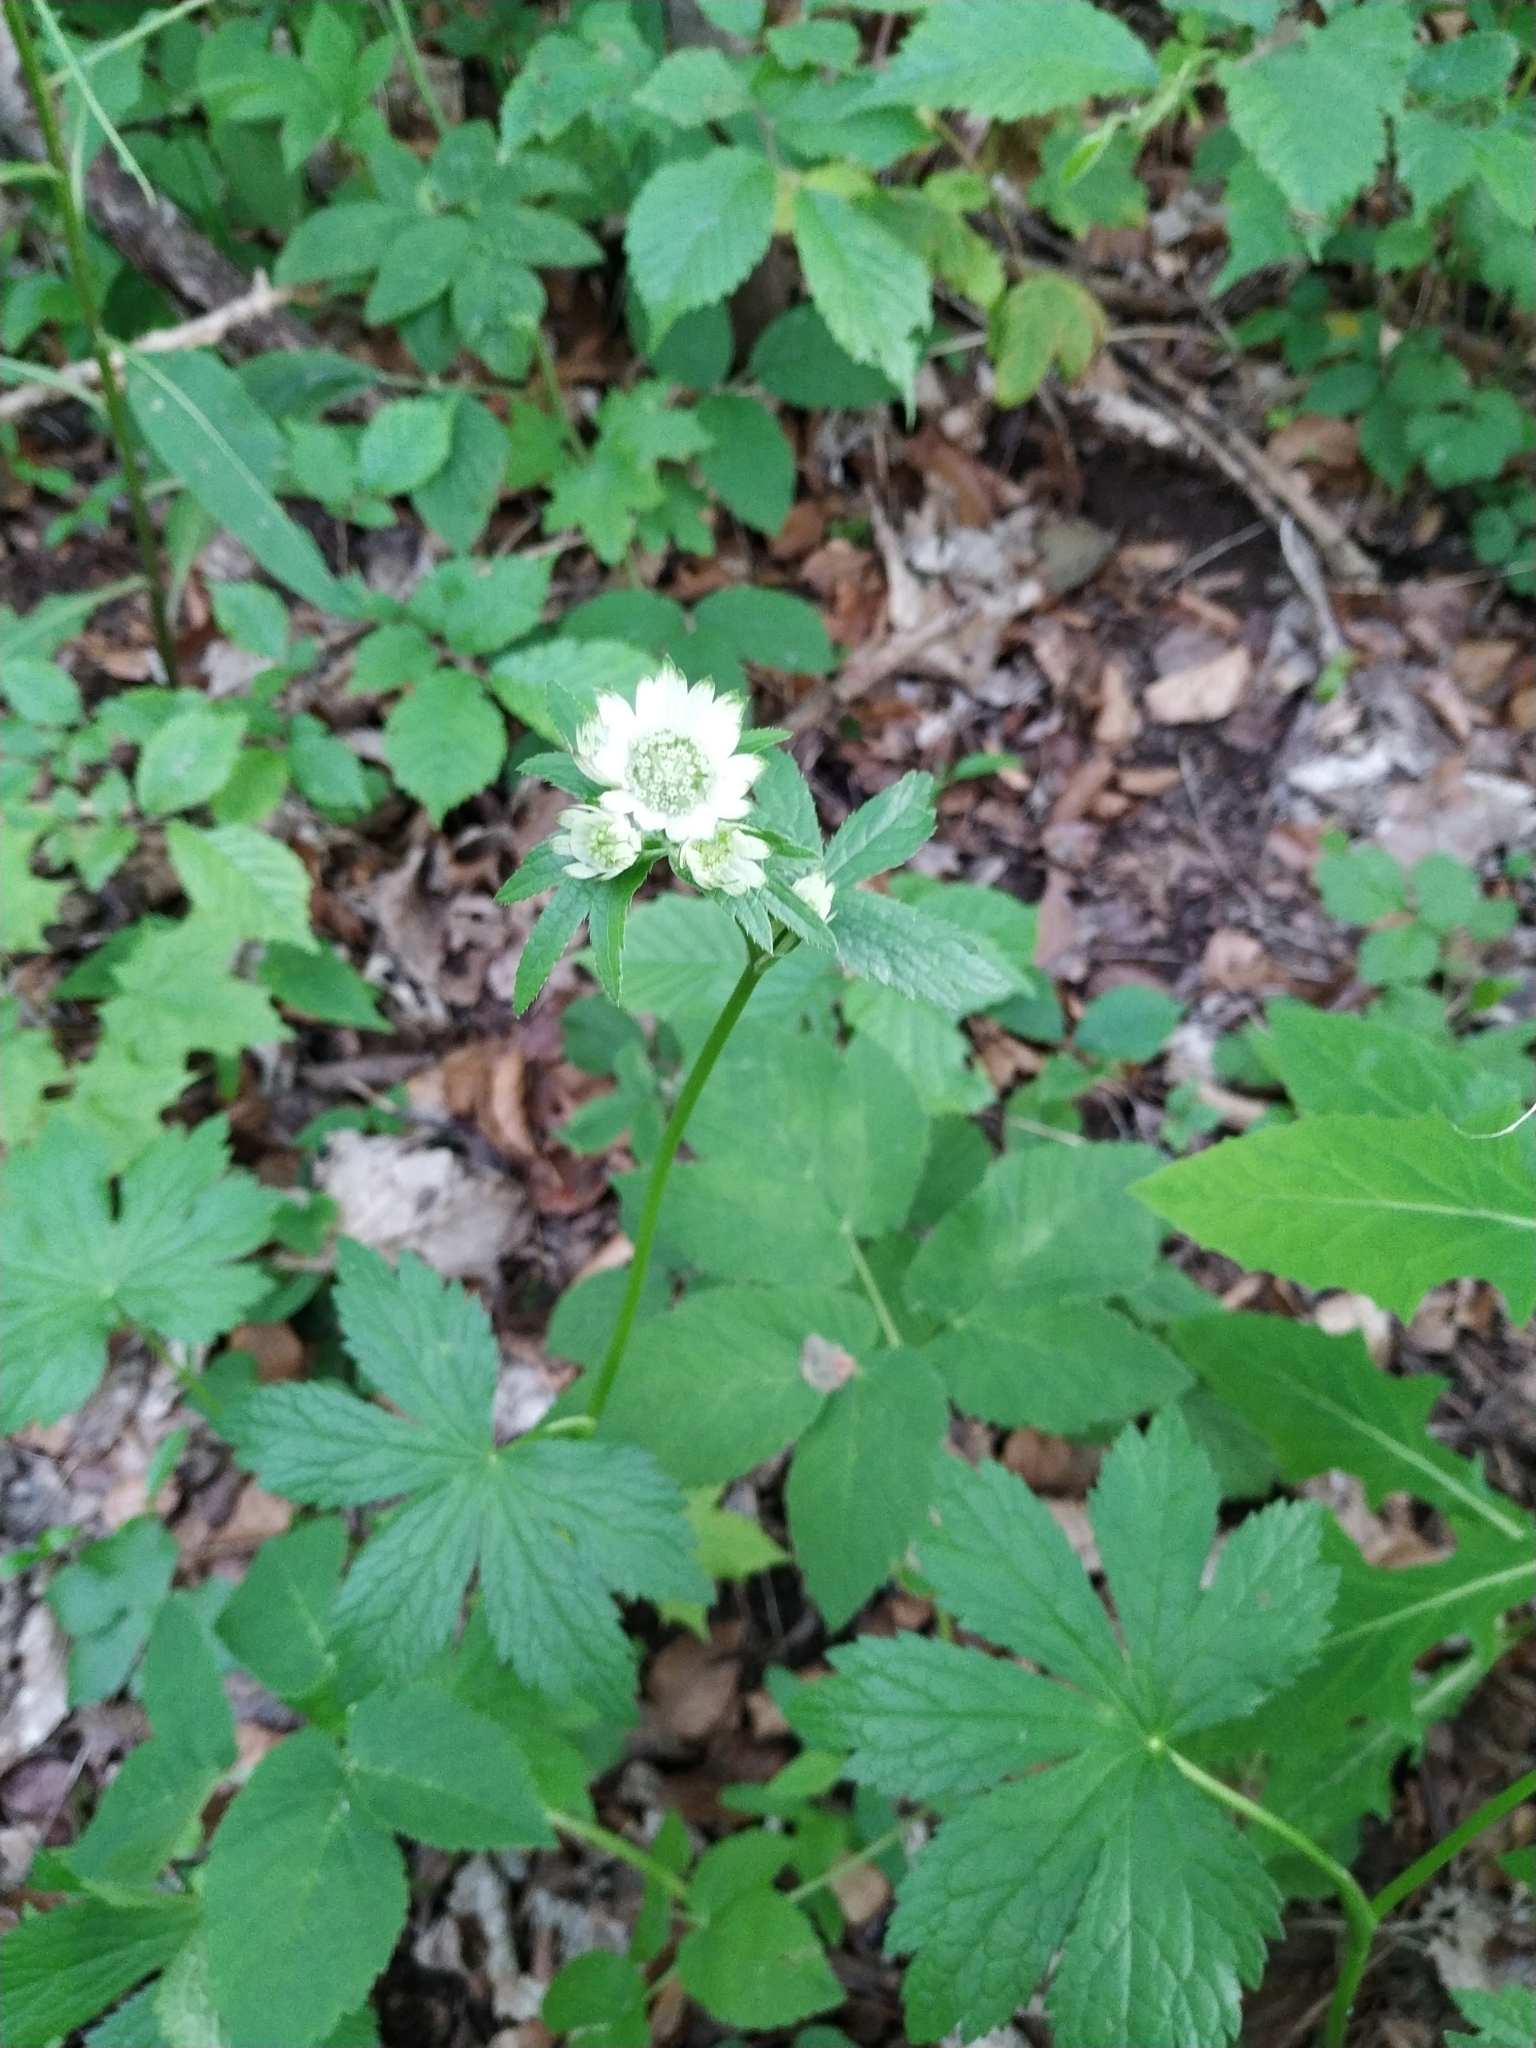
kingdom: Plantae
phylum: Tracheophyta
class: Magnoliopsida
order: Apiales
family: Apiaceae
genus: Astrantia
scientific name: Astrantia major
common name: Greater masterwort
